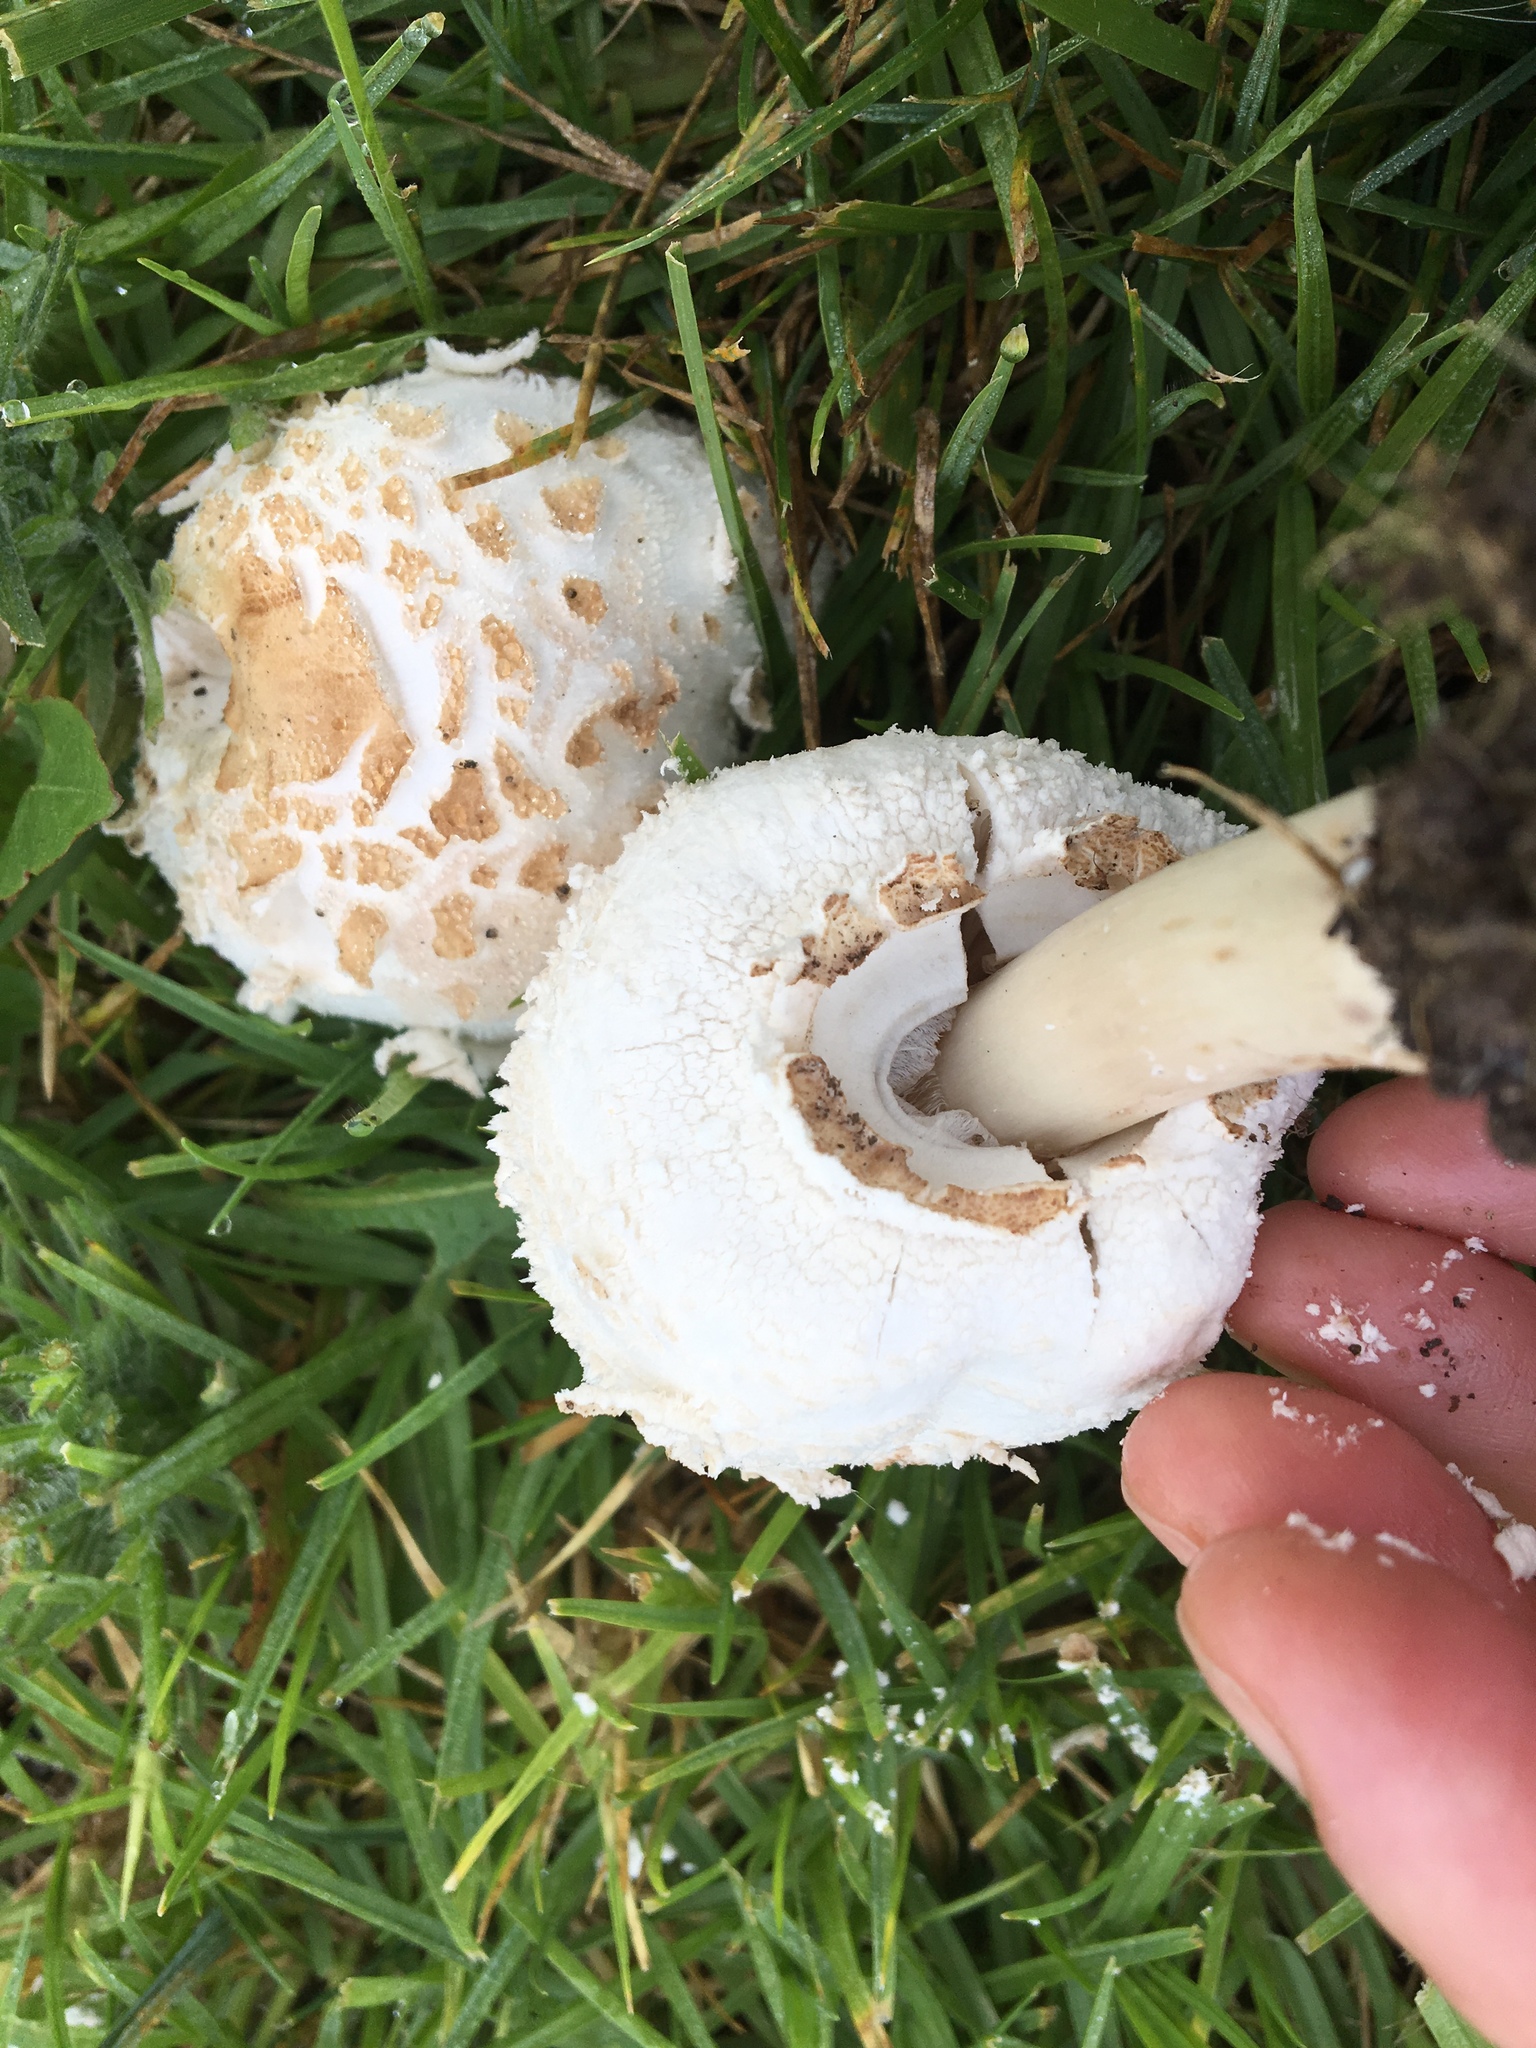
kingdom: Fungi
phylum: Basidiomycota
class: Agaricomycetes
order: Agaricales
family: Agaricaceae
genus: Chlorophyllum
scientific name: Chlorophyllum molybdites
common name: False parasol
